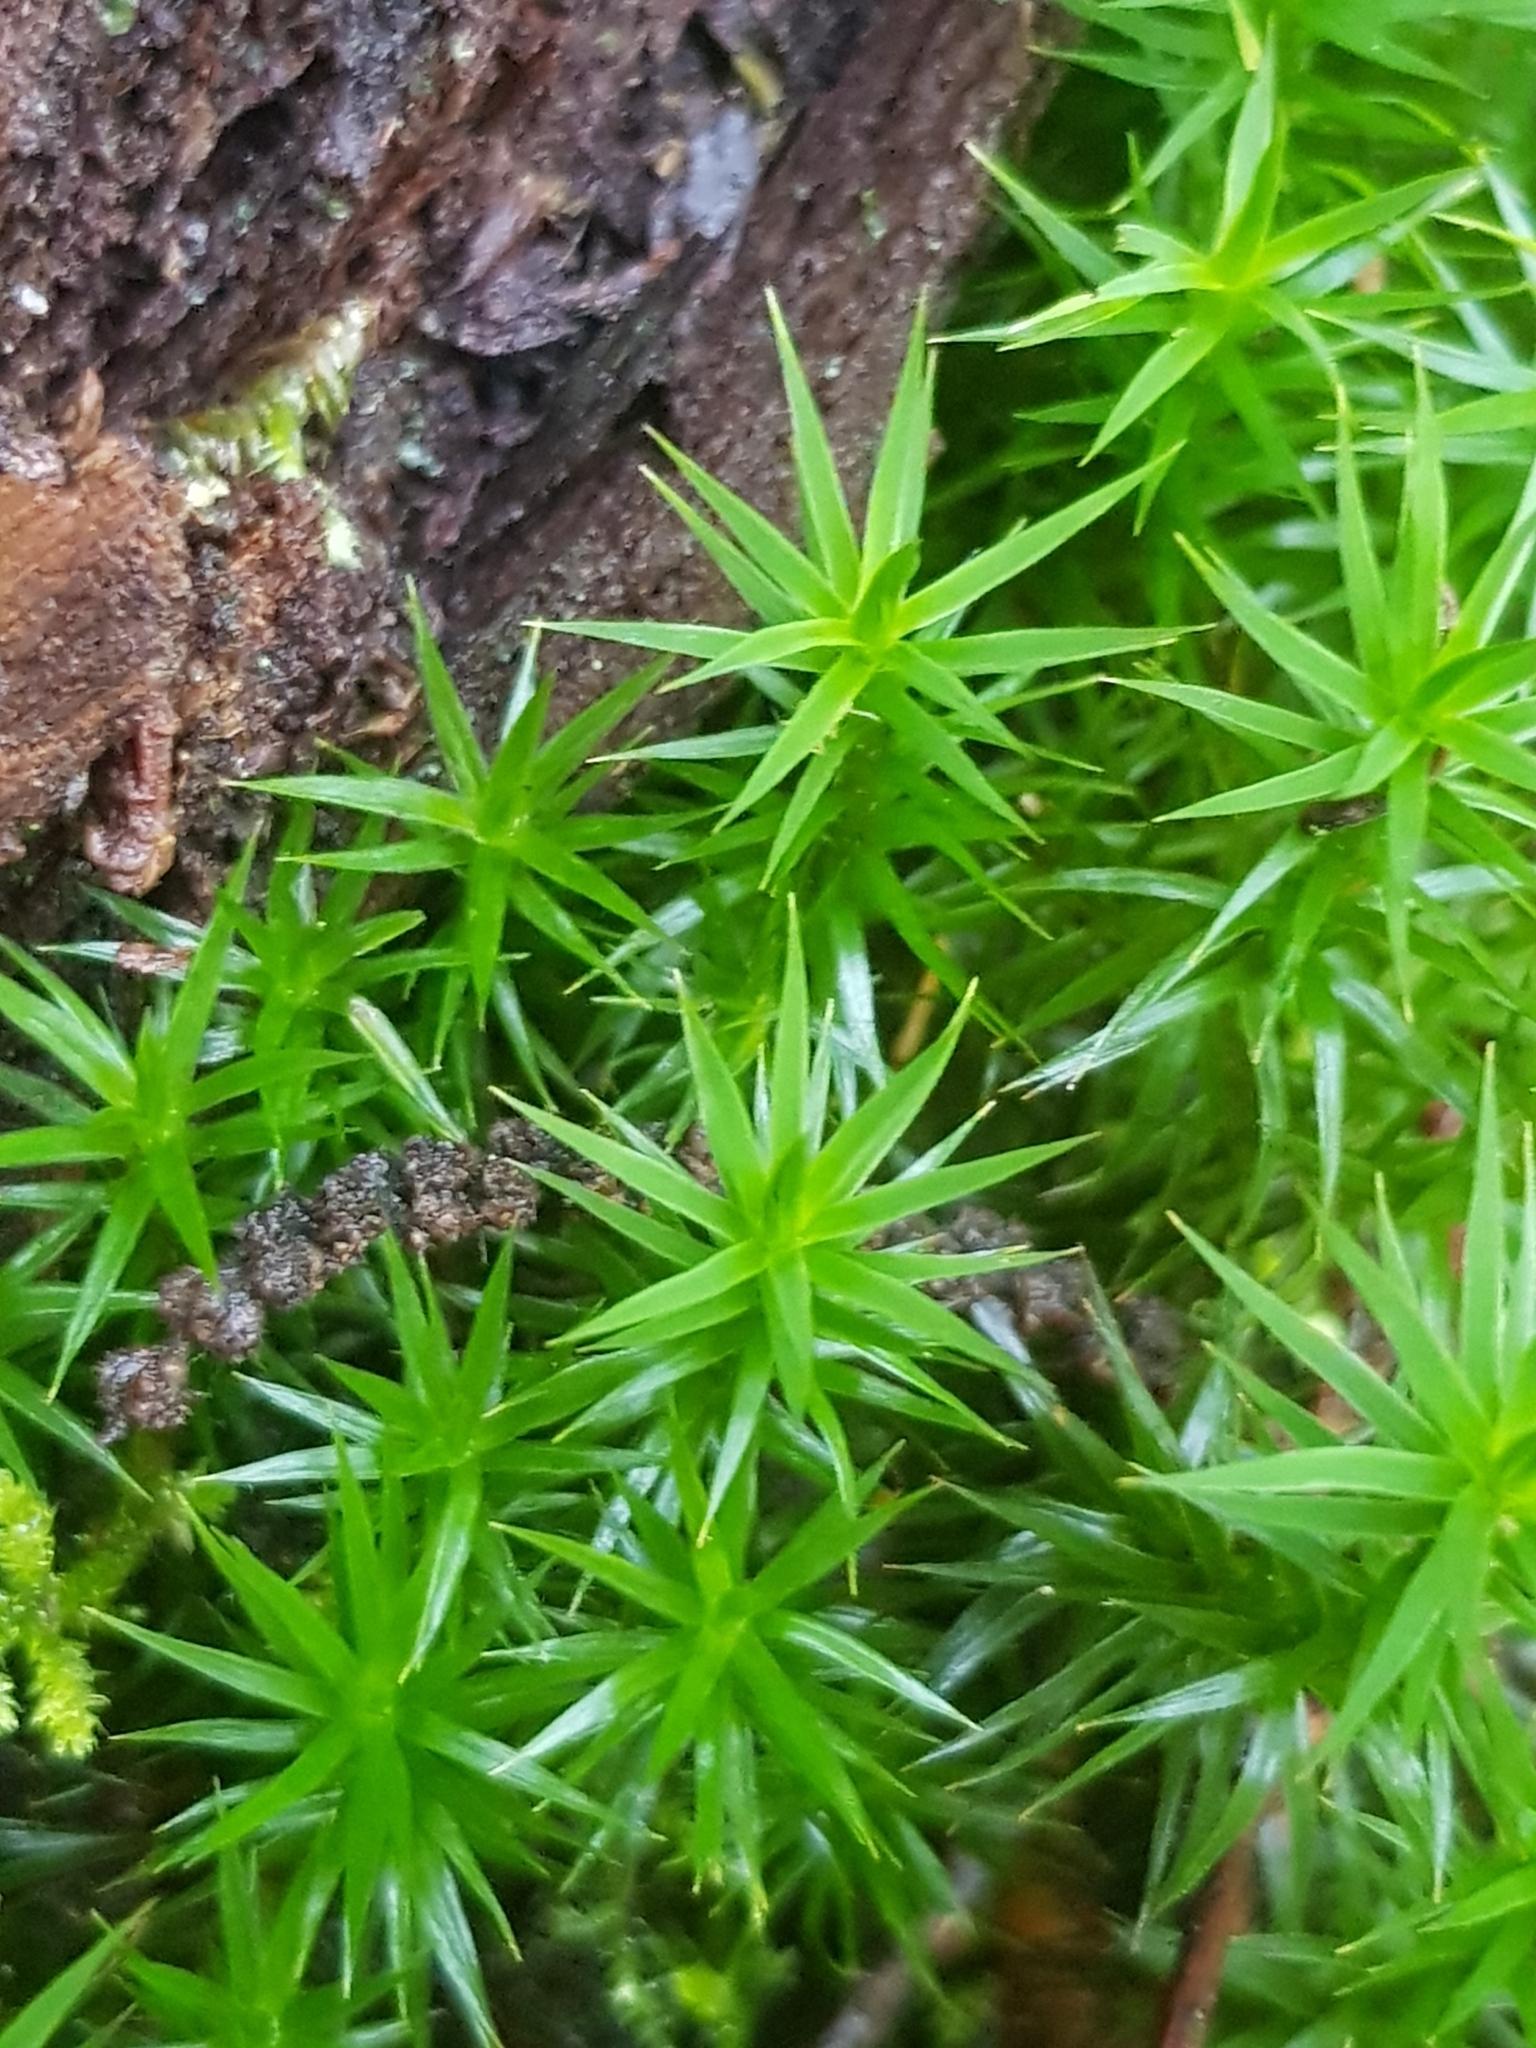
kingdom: Plantae
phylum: Bryophyta
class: Polytrichopsida
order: Polytrichales
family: Polytrichaceae
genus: Polytrichum
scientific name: Polytrichum formosum
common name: Bank haircap moss
